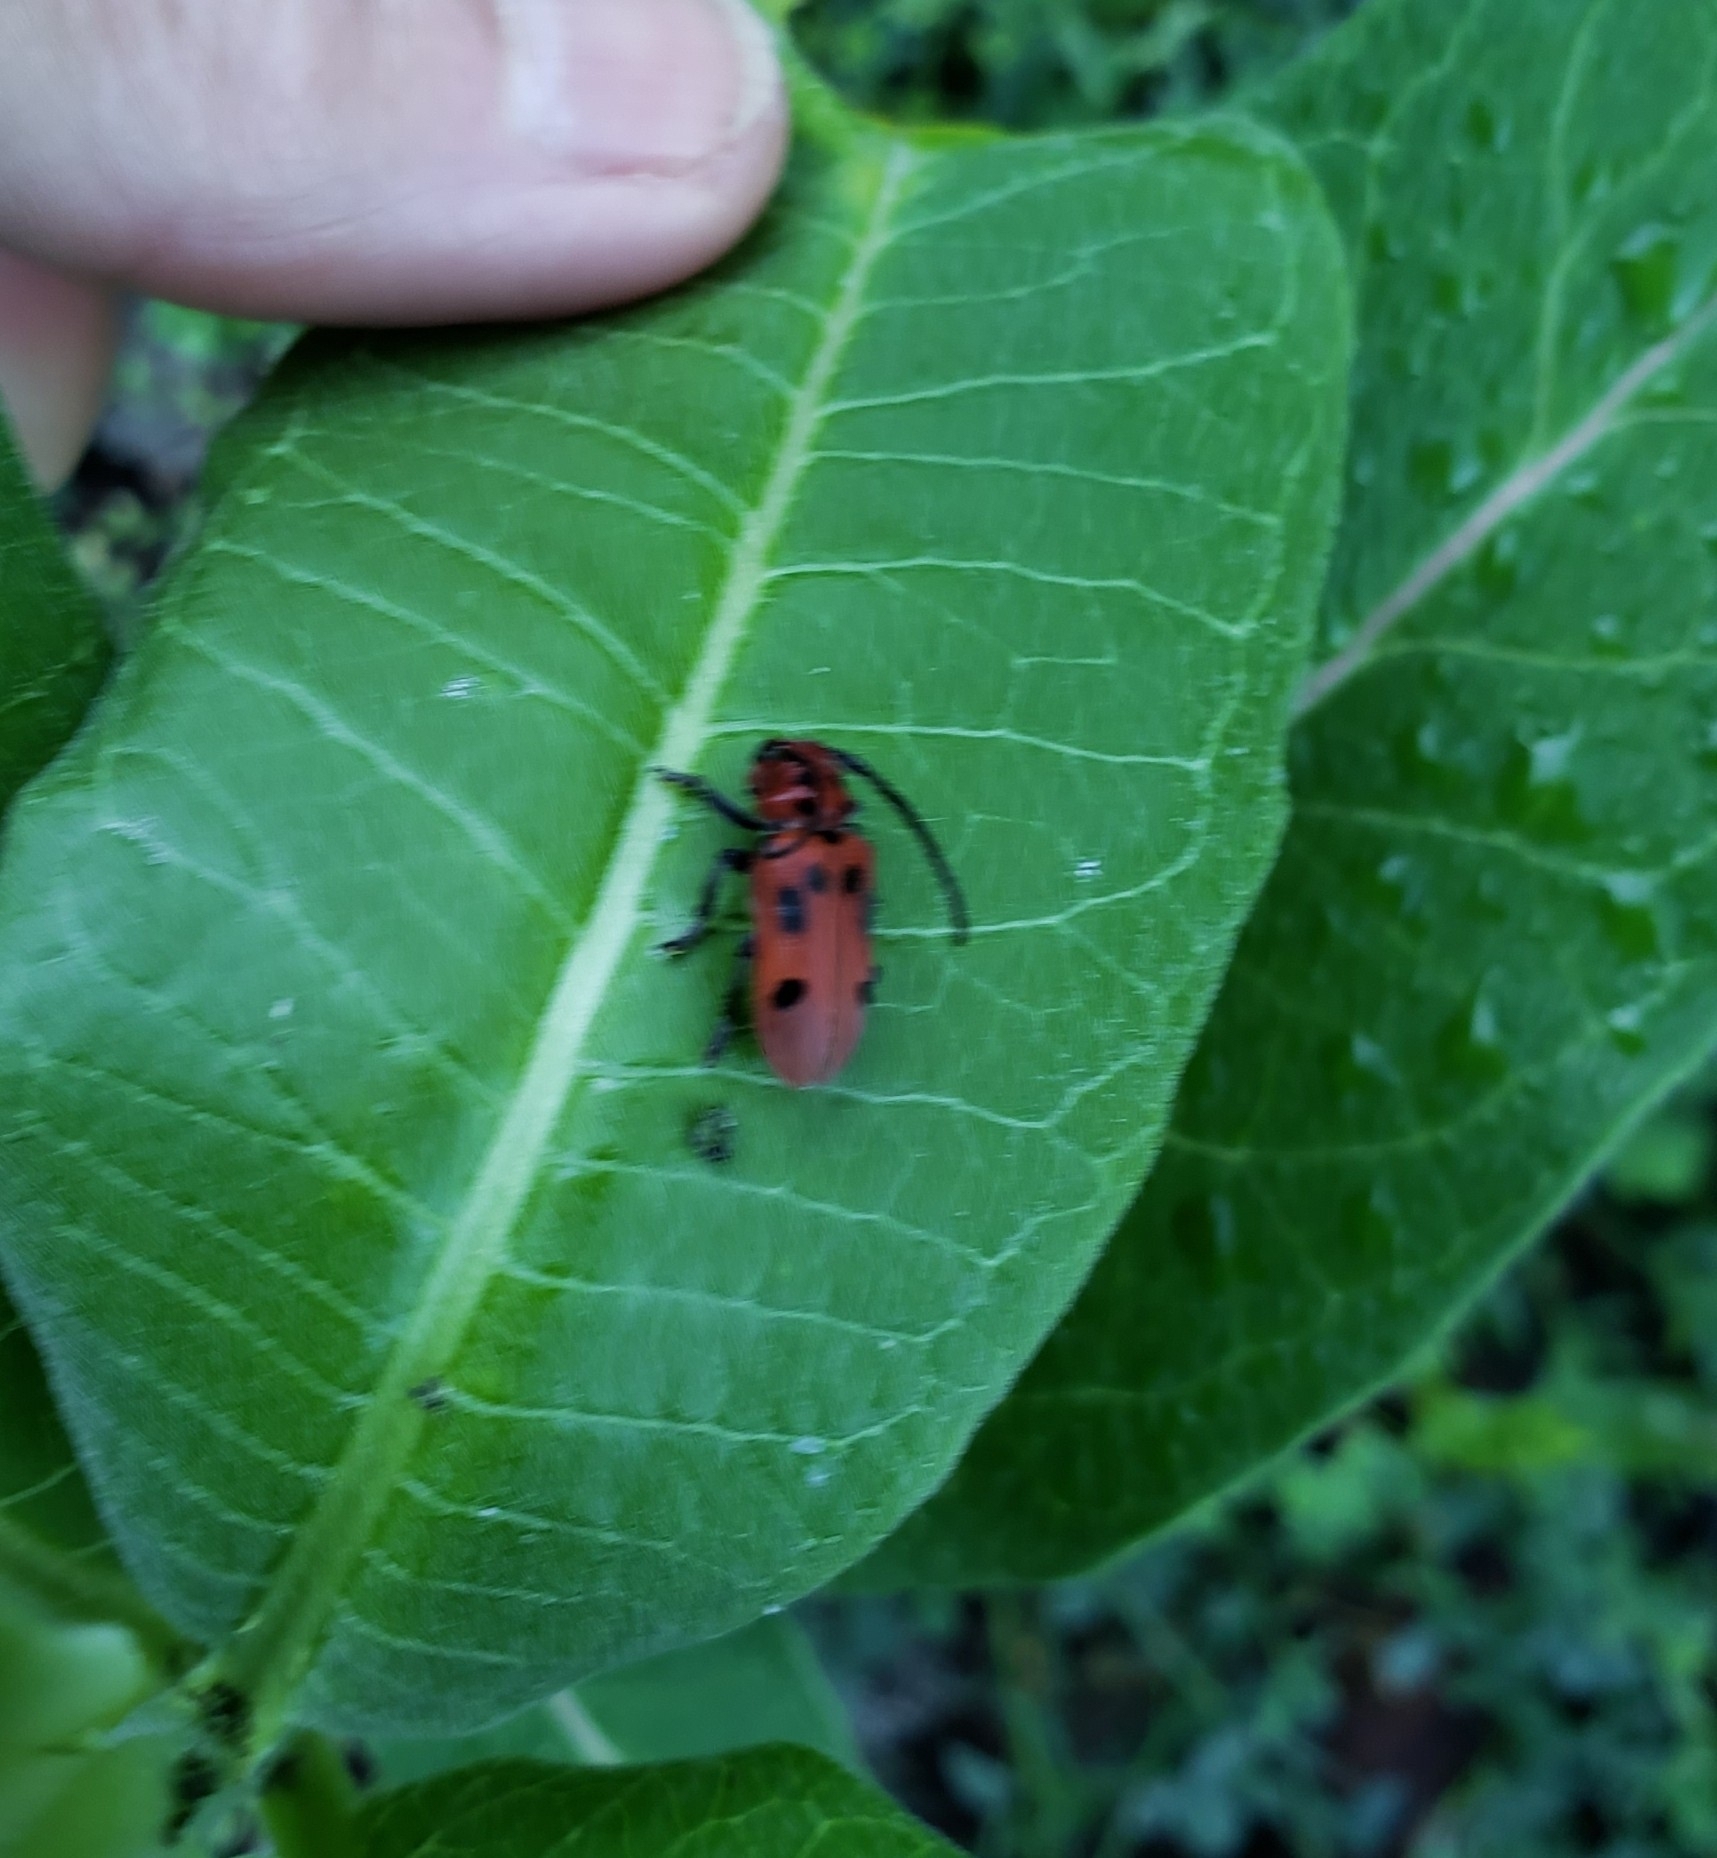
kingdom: Animalia
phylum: Arthropoda
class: Insecta
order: Coleoptera
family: Cerambycidae
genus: Tetraopes
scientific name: Tetraopes tetrophthalmus
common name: Red milkweed beetle
